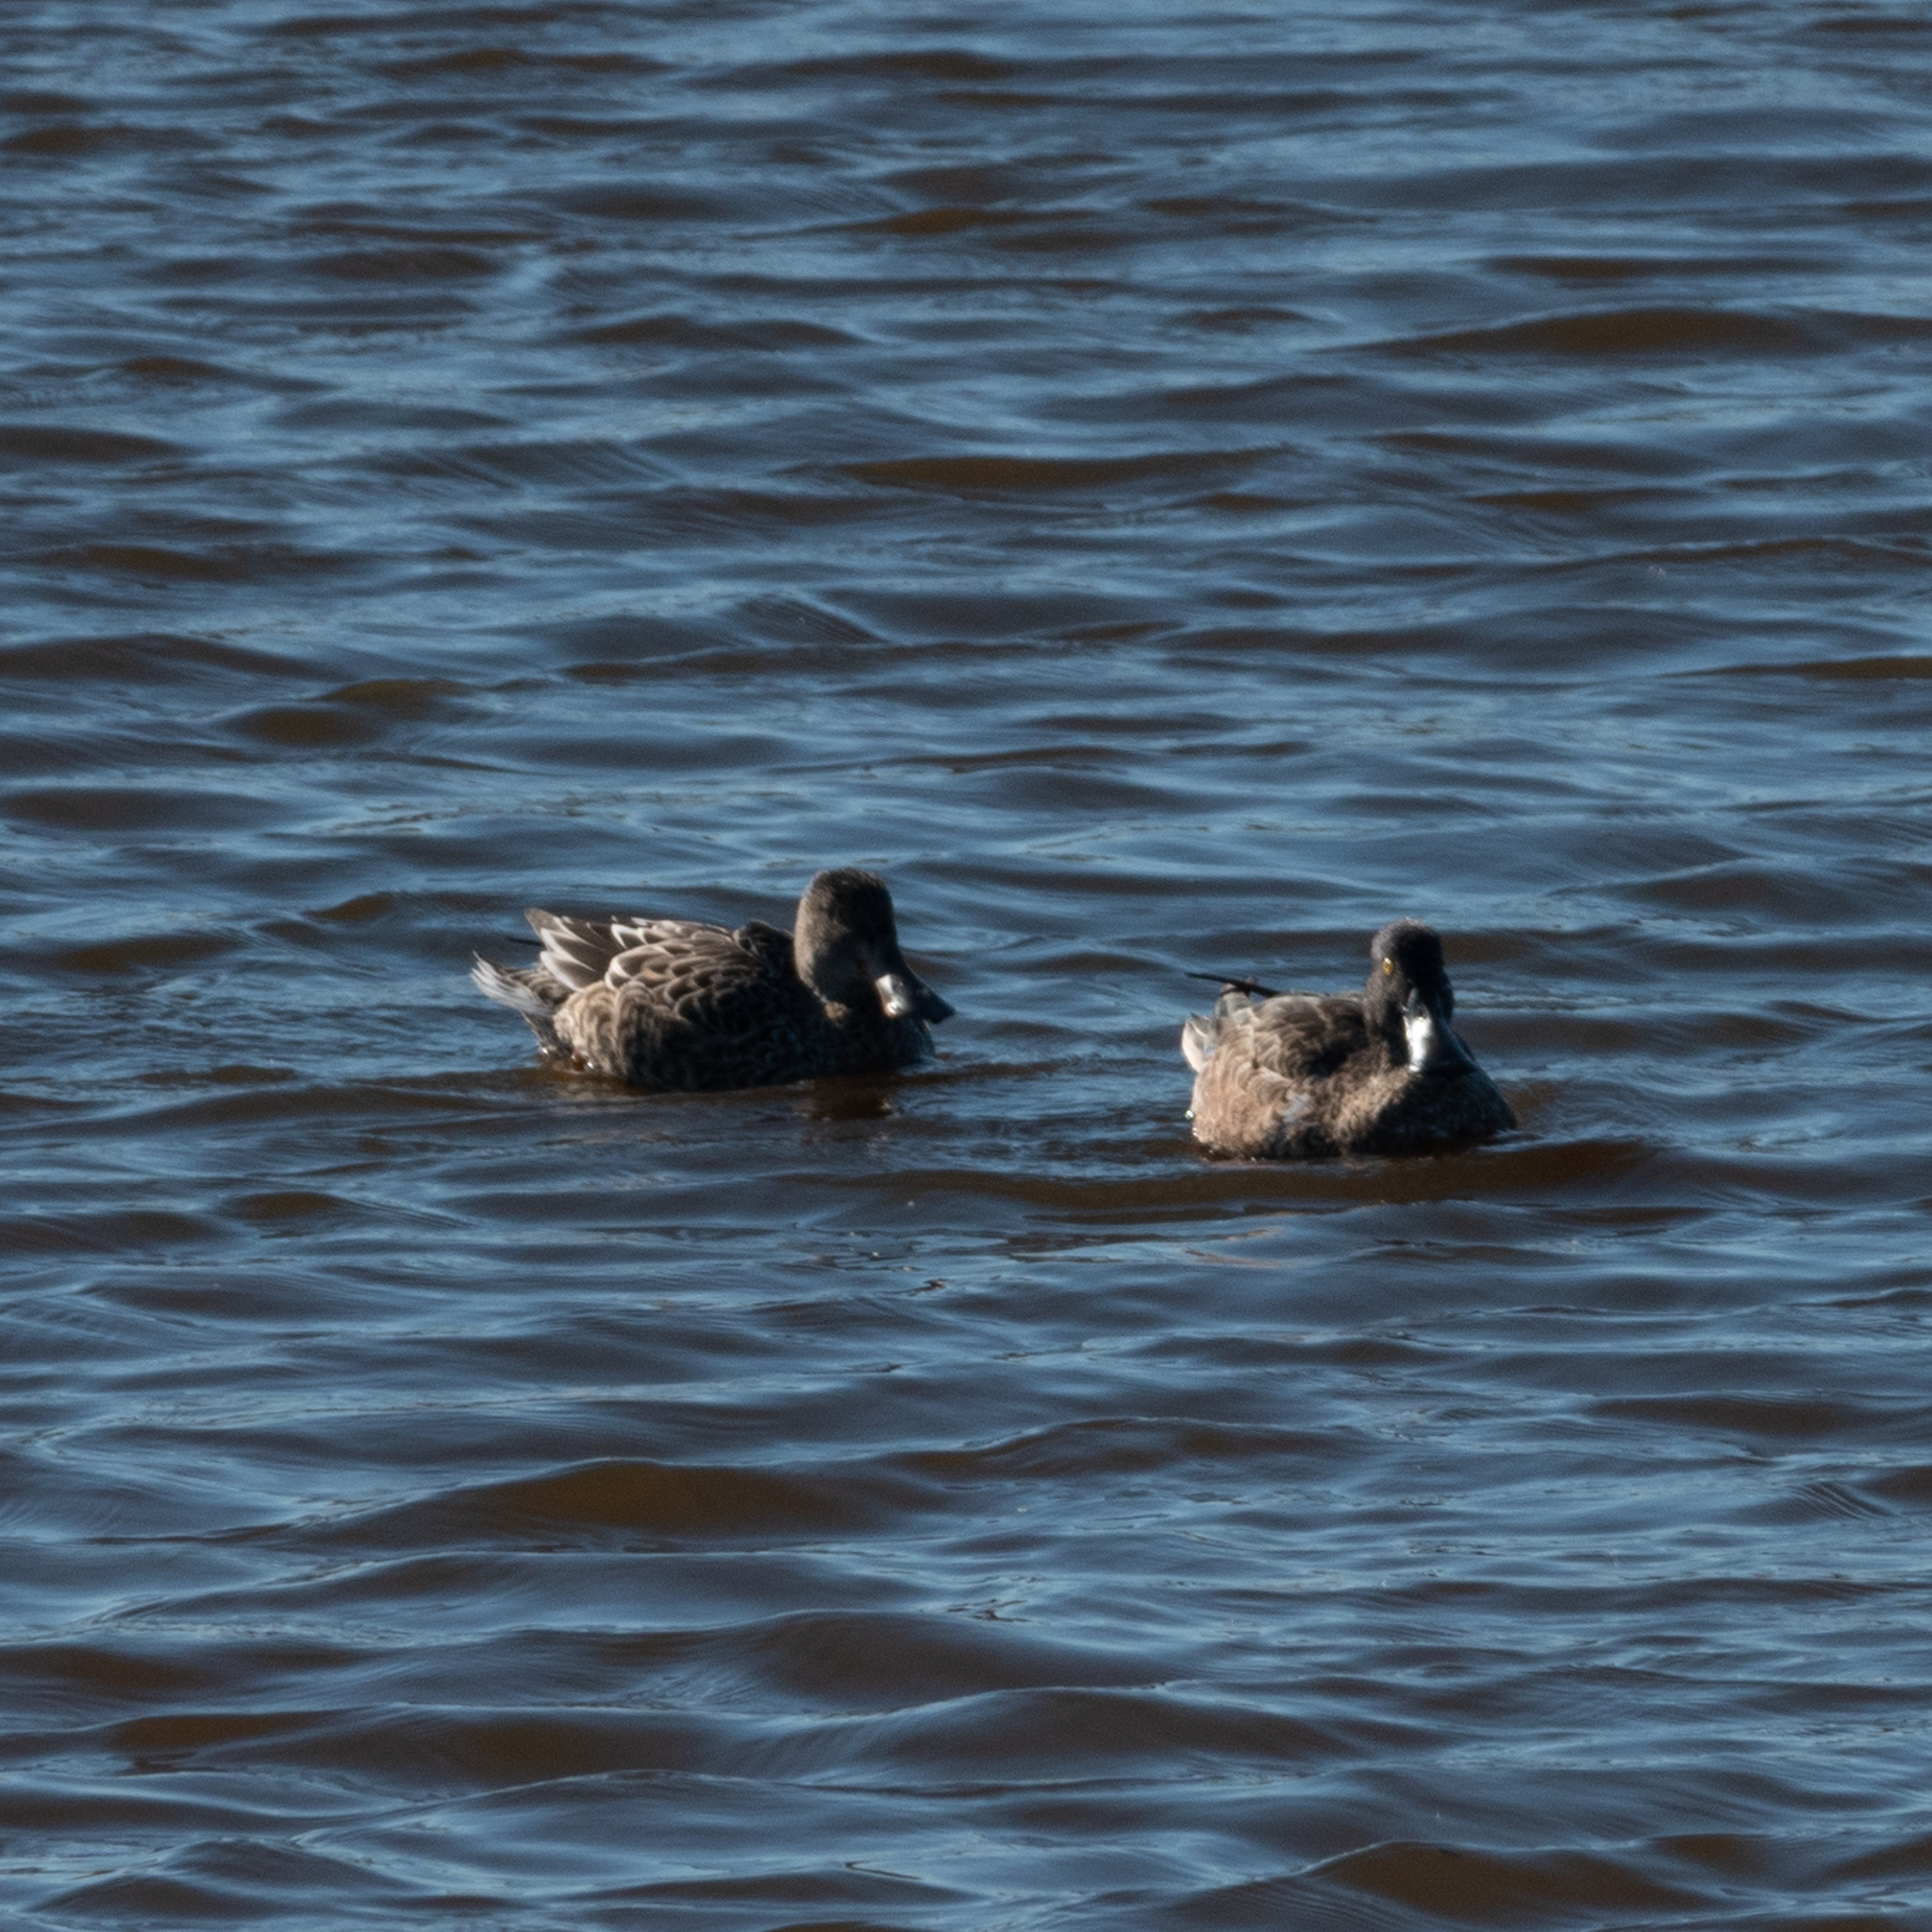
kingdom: Animalia
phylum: Chordata
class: Aves
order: Anseriformes
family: Anatidae
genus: Spatula
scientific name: Spatula clypeata
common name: Northern shoveler
